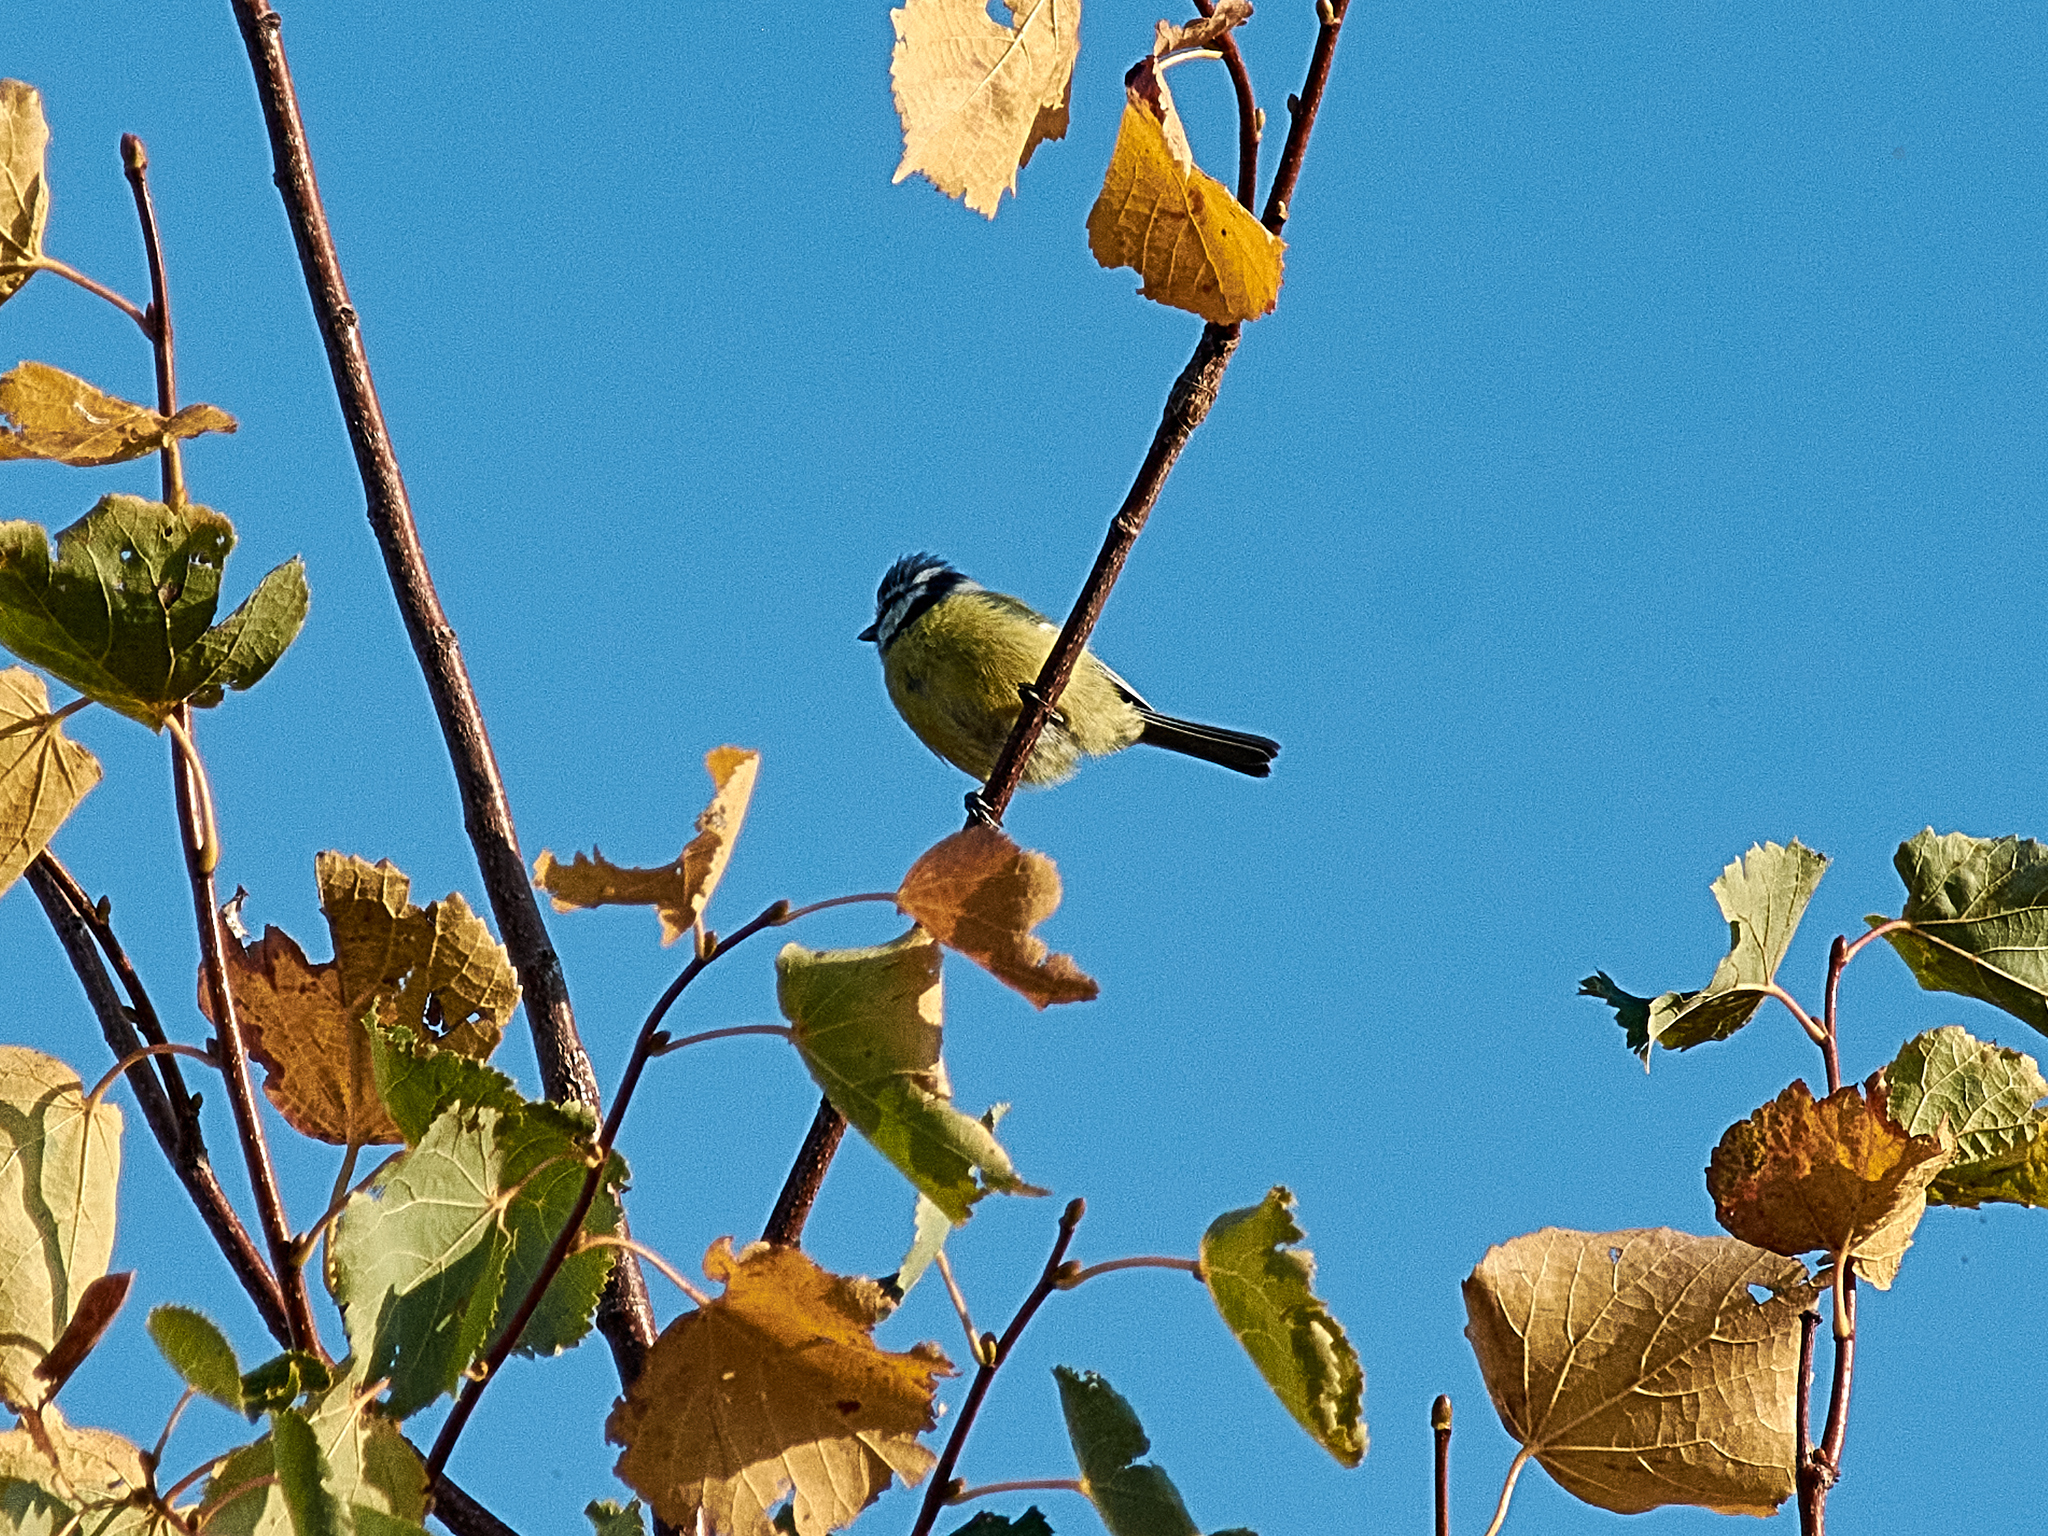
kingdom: Animalia
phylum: Chordata
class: Aves
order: Passeriformes
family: Paridae
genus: Cyanistes
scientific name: Cyanistes caeruleus
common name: Eurasian blue tit
